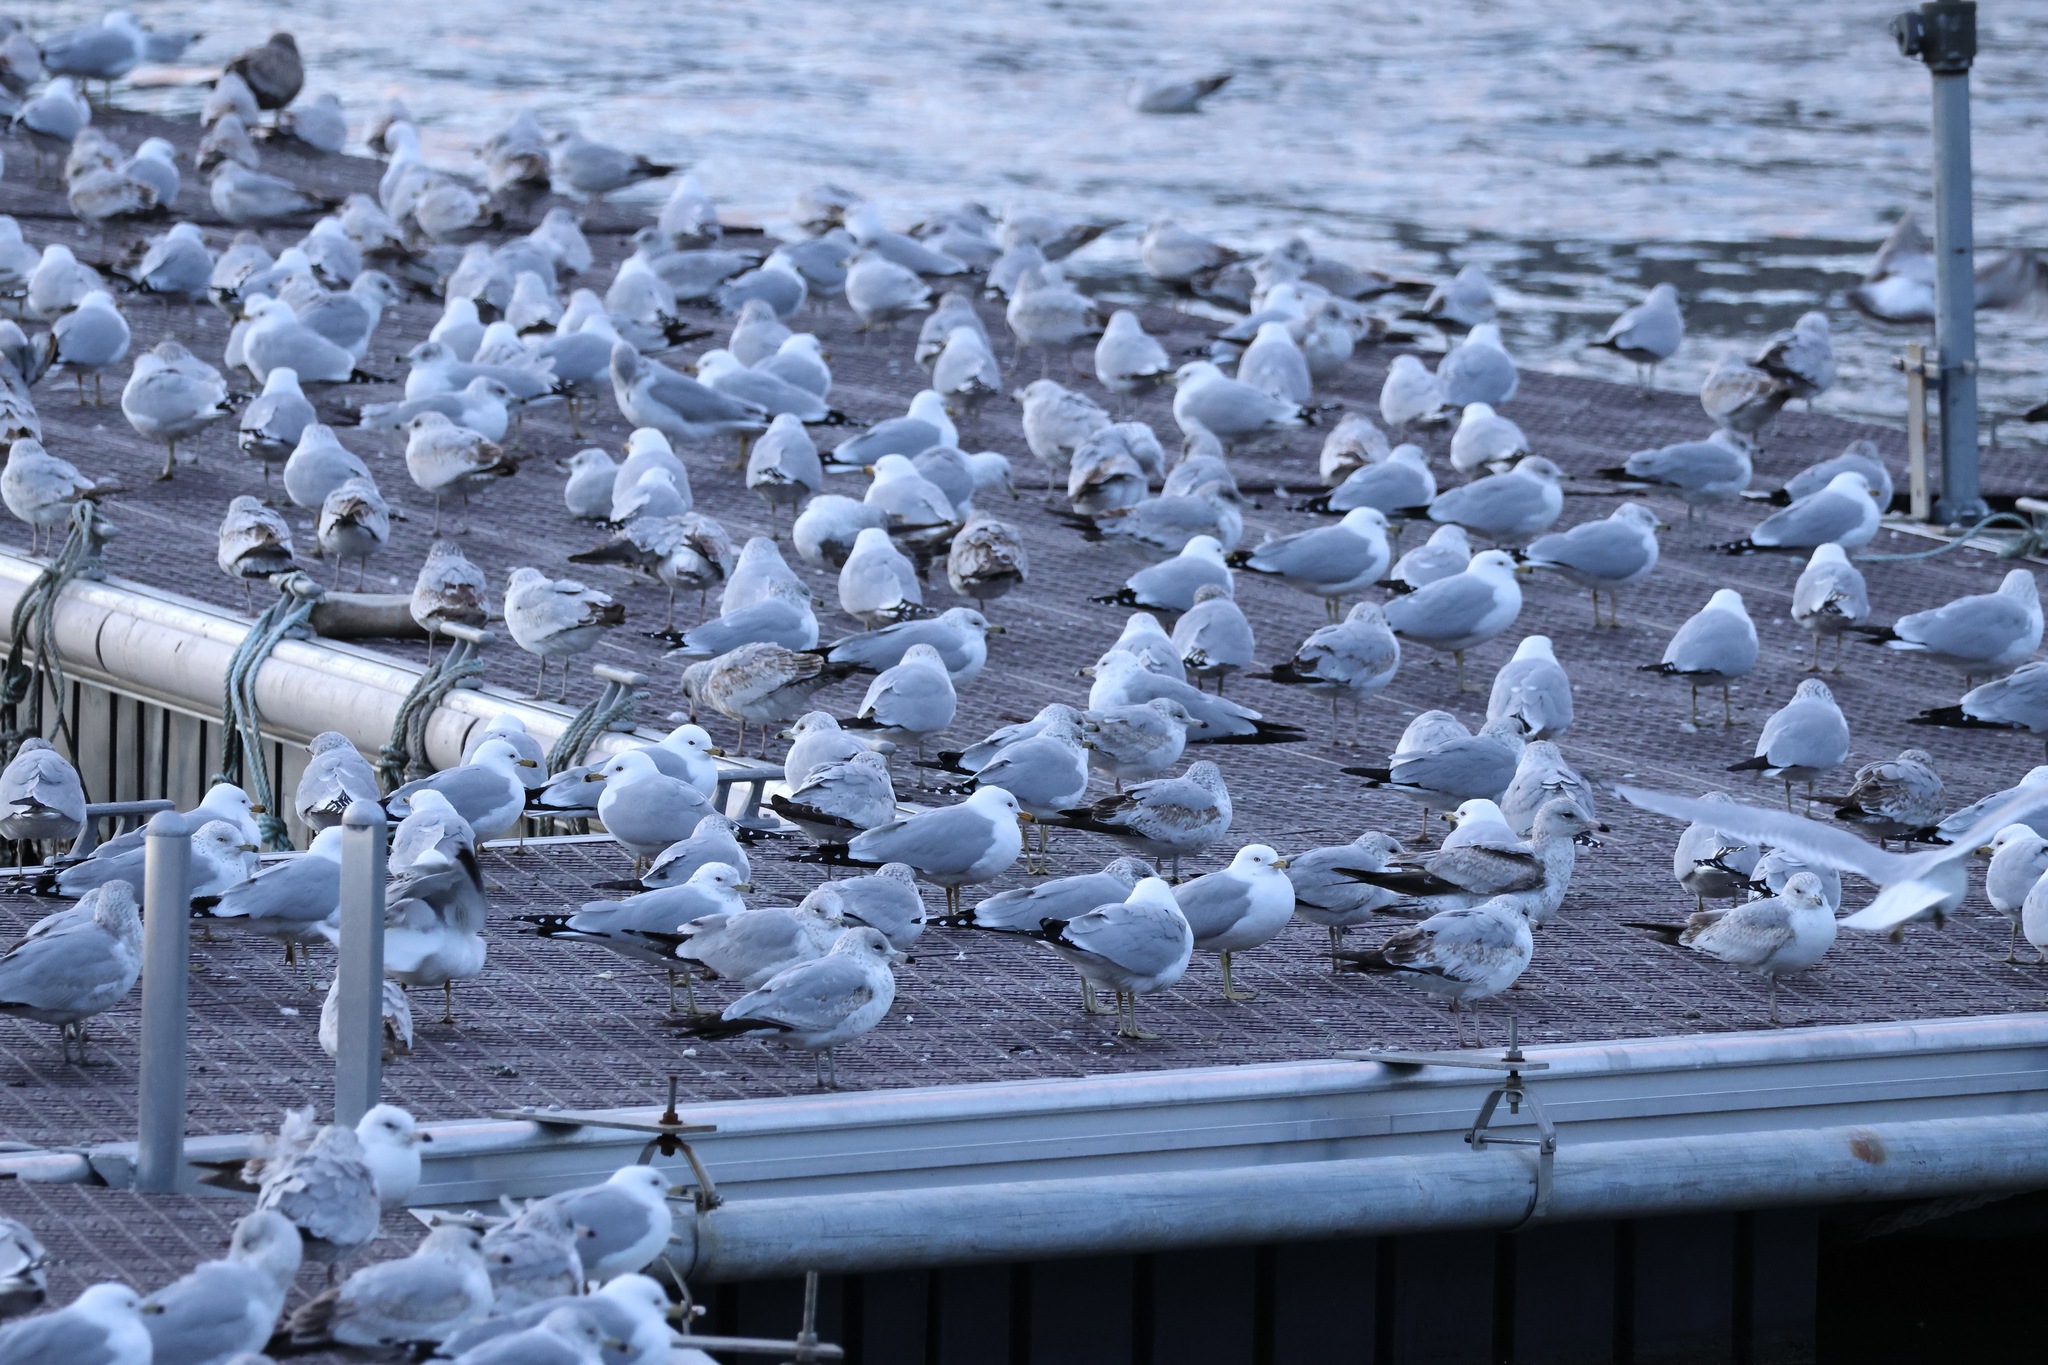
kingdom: Animalia
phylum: Chordata
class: Aves
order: Charadriiformes
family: Laridae
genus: Larus
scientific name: Larus delawarensis
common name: Ring-billed gull
